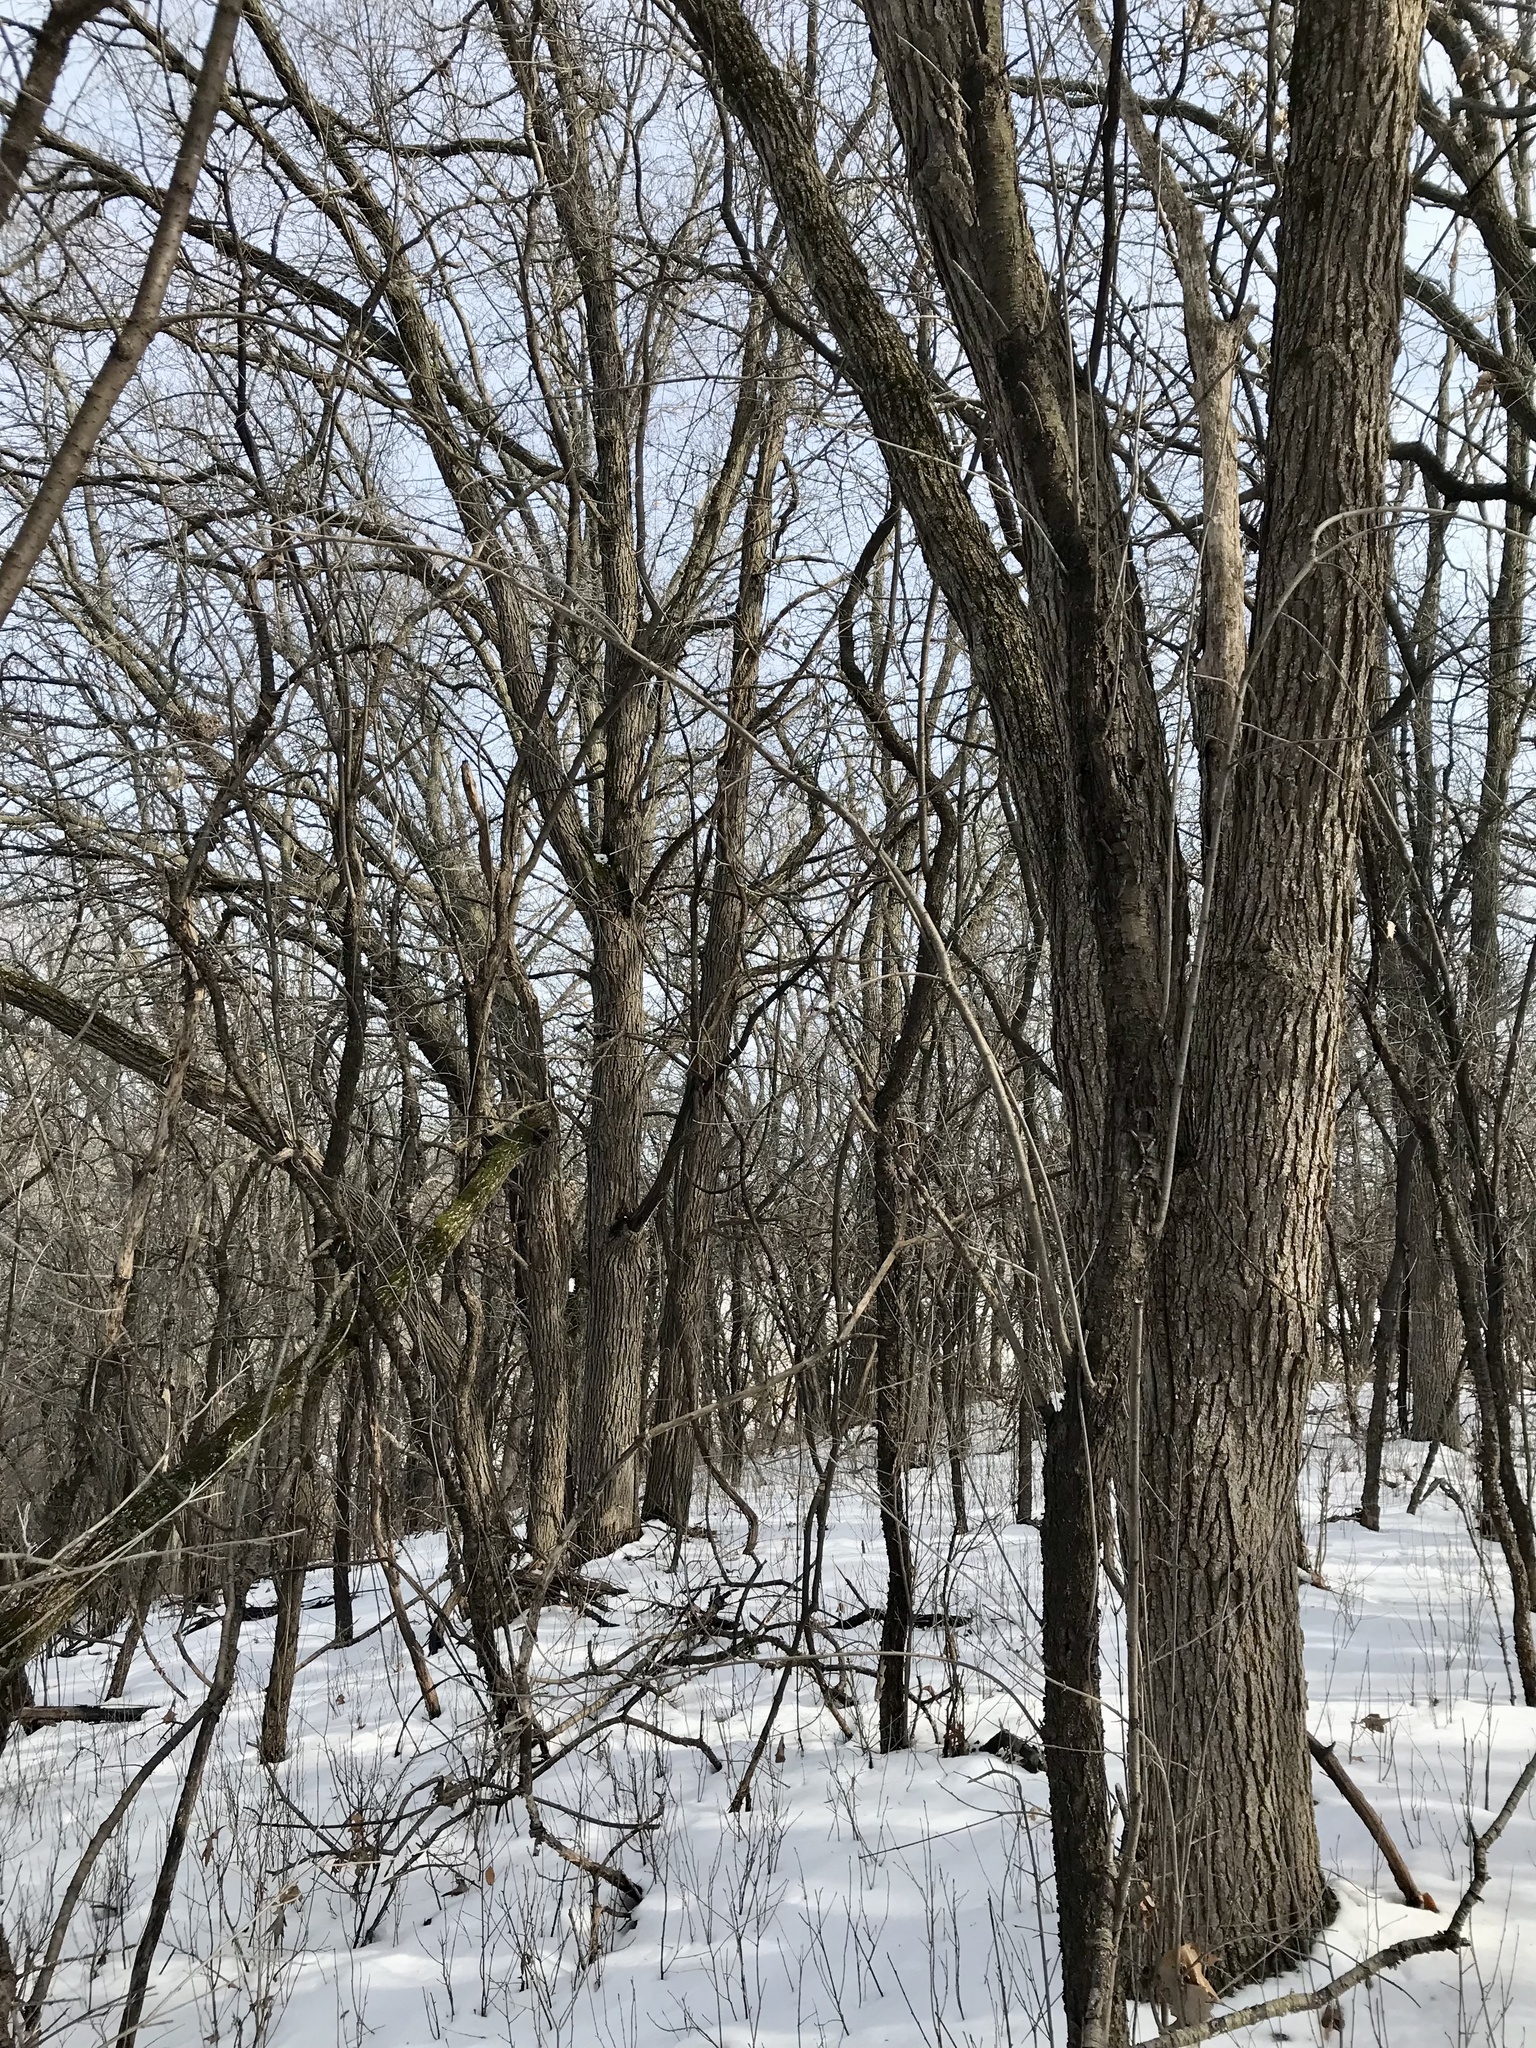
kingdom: Plantae
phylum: Tracheophyta
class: Magnoliopsida
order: Fagales
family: Fagaceae
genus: Quercus
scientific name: Quercus macrocarpa
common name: Bur oak
